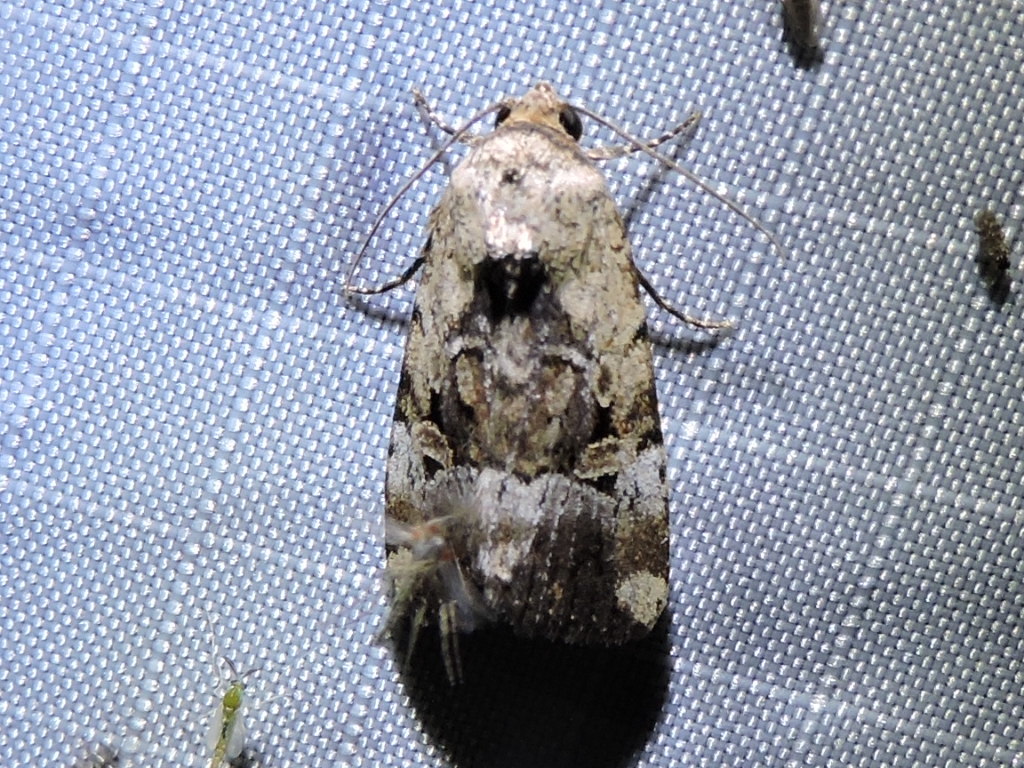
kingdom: Animalia
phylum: Arthropoda
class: Insecta
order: Lepidoptera
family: Noctuidae
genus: Elaphria
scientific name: Elaphria chalcedonia
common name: Chalcedony midget
